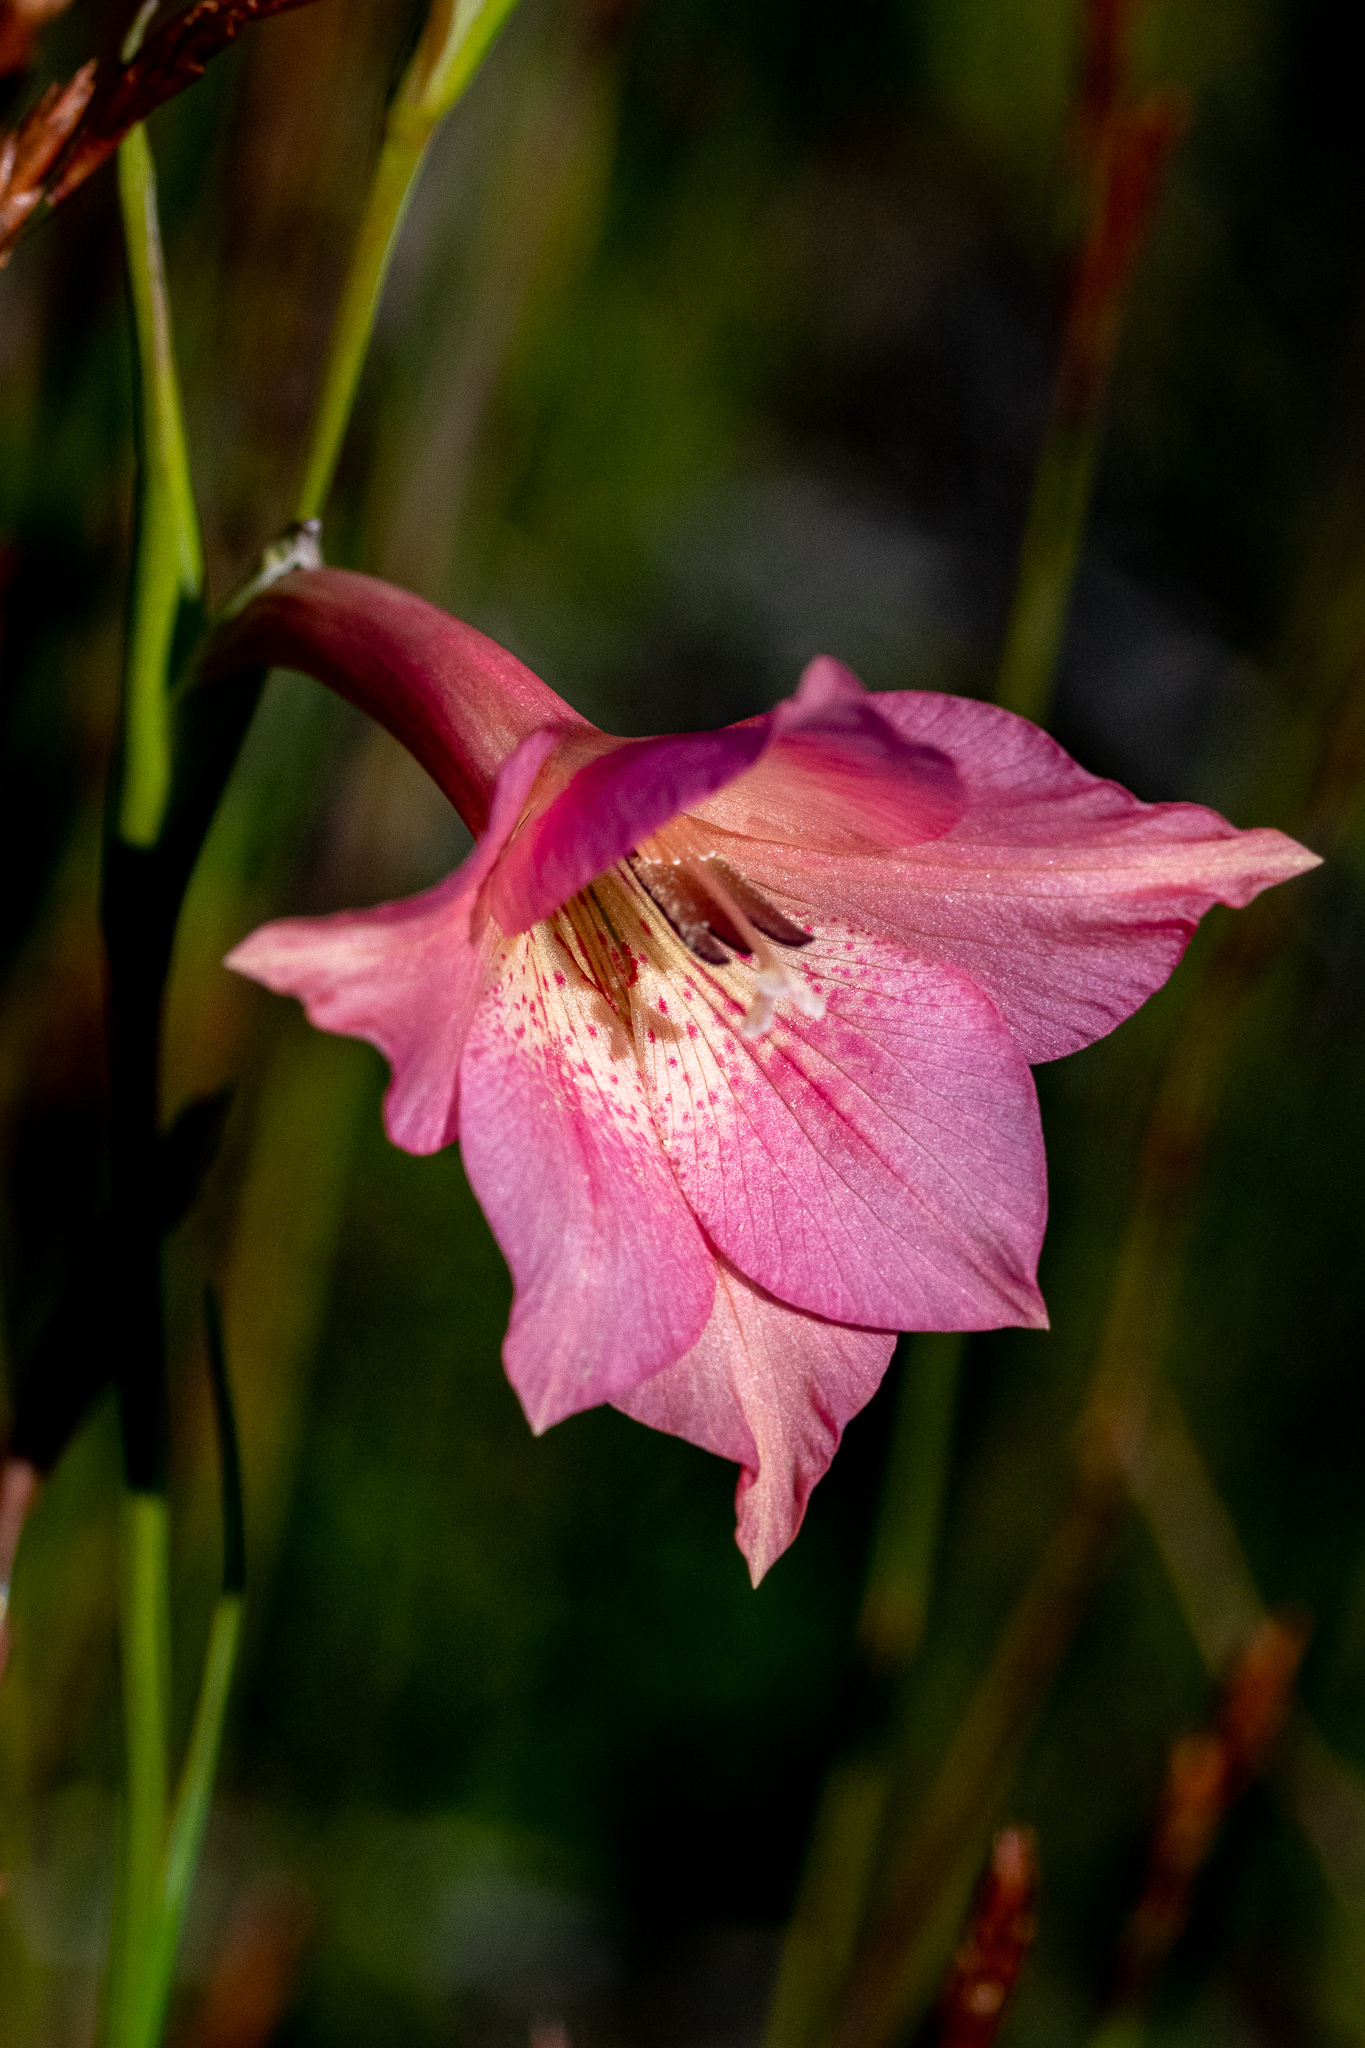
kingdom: Plantae
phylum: Tracheophyta
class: Liliopsida
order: Asparagales
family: Iridaceae
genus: Gladiolus
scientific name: Gladiolus meridionalis
